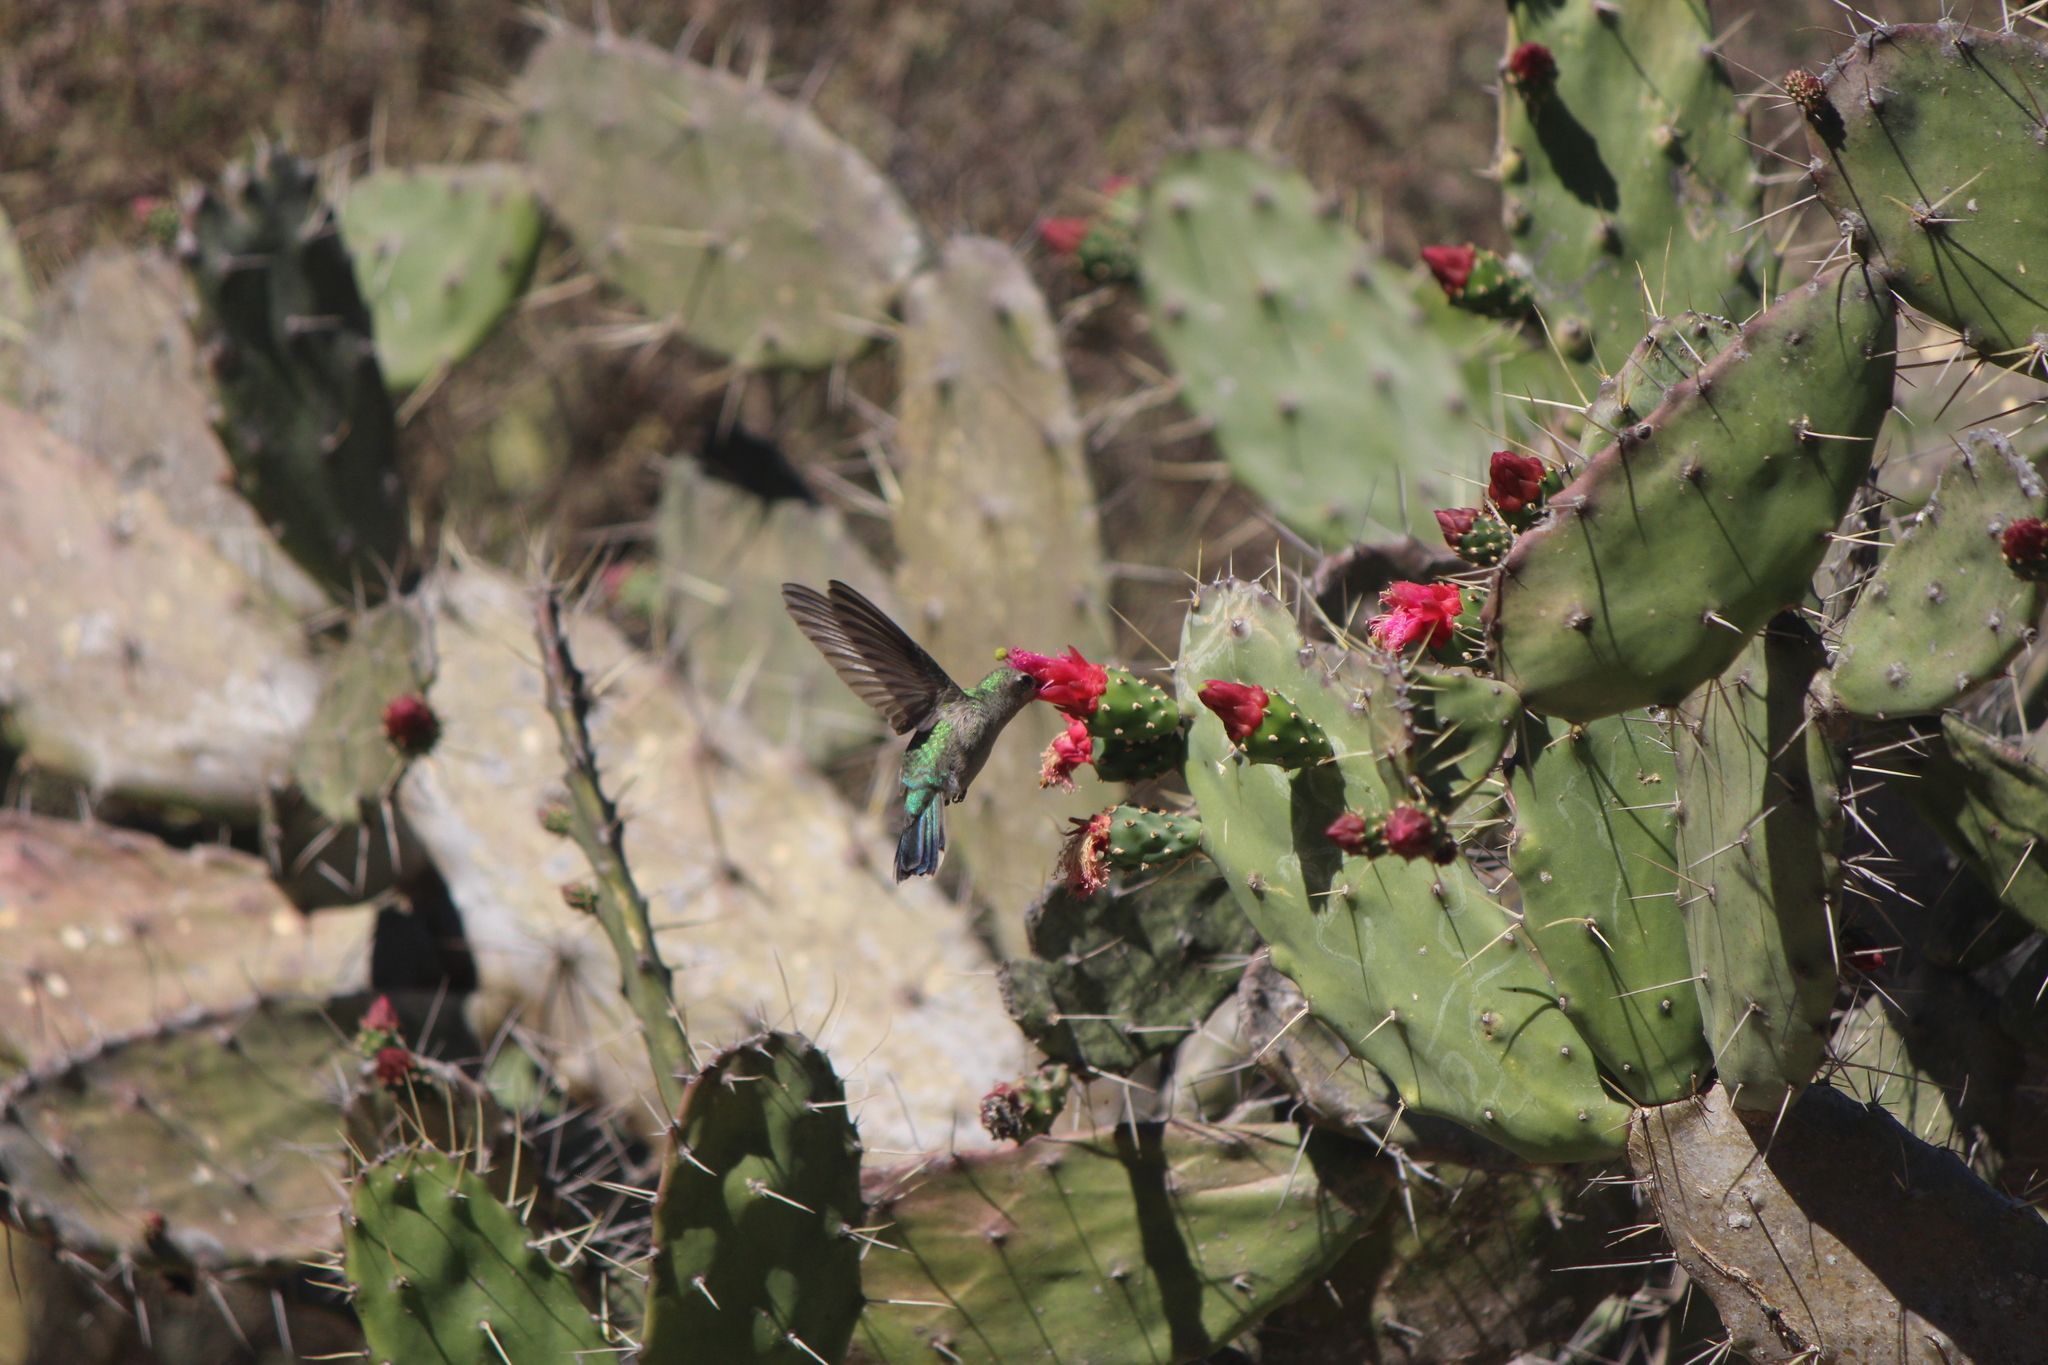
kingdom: Animalia
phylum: Chordata
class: Aves
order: Apodiformes
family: Trochilidae
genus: Cynanthus
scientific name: Cynanthus latirostris
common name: Broad-billed hummingbird
